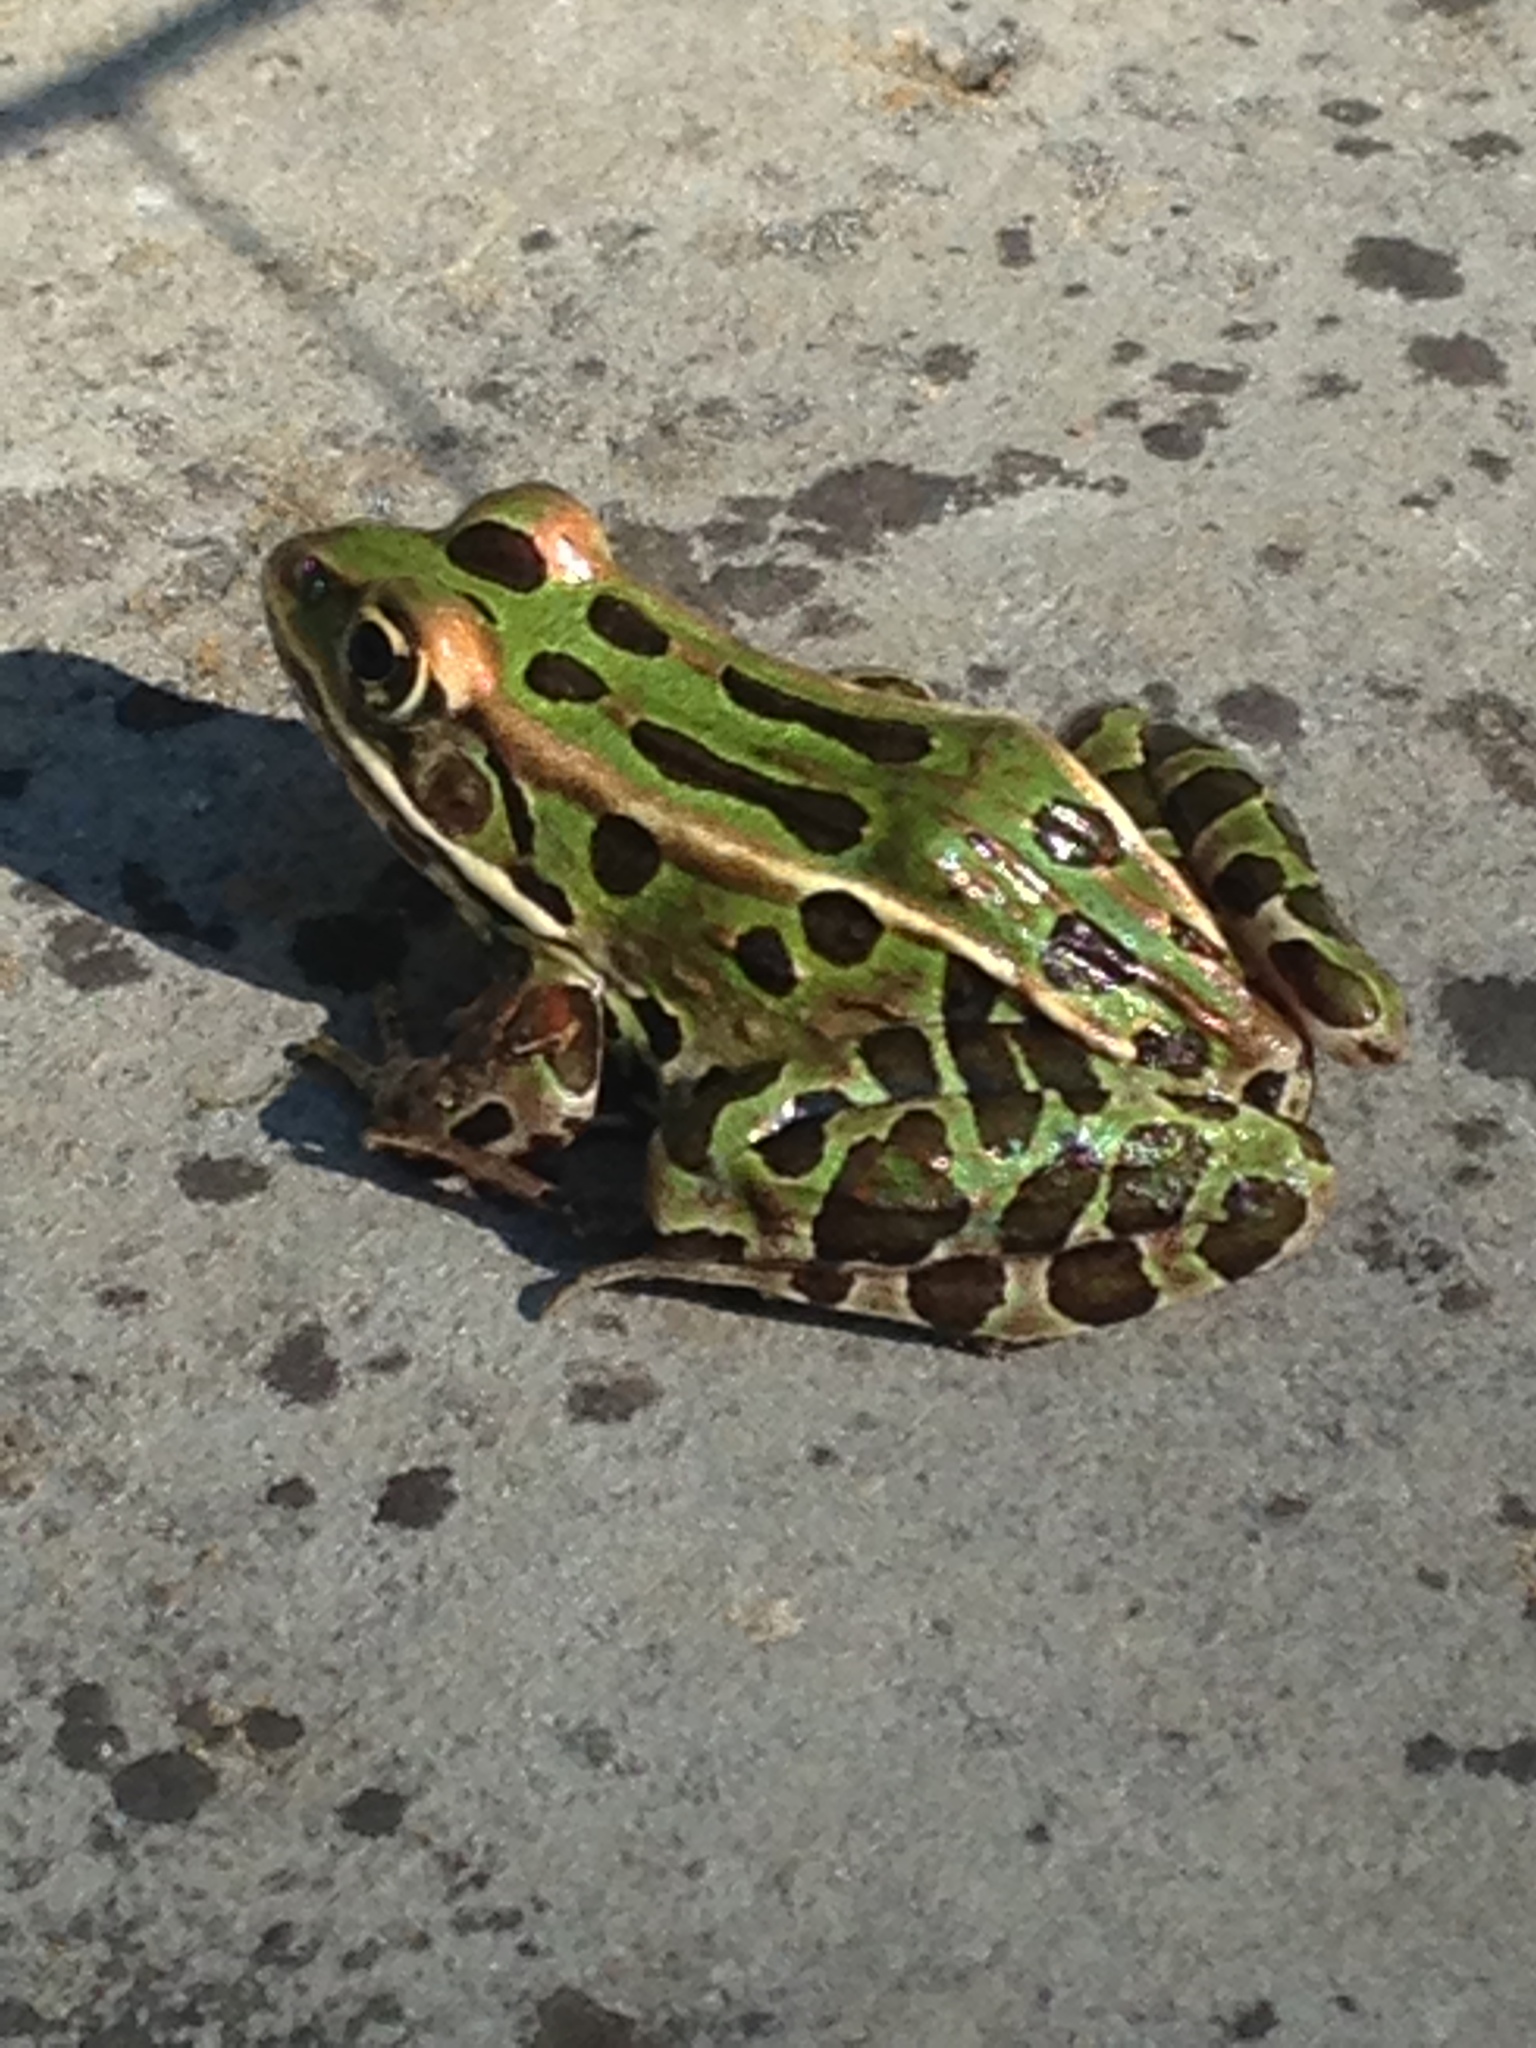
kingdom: Animalia
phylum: Chordata
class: Amphibia
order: Anura
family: Ranidae
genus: Lithobates
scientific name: Lithobates pipiens
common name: Northern leopard frog
